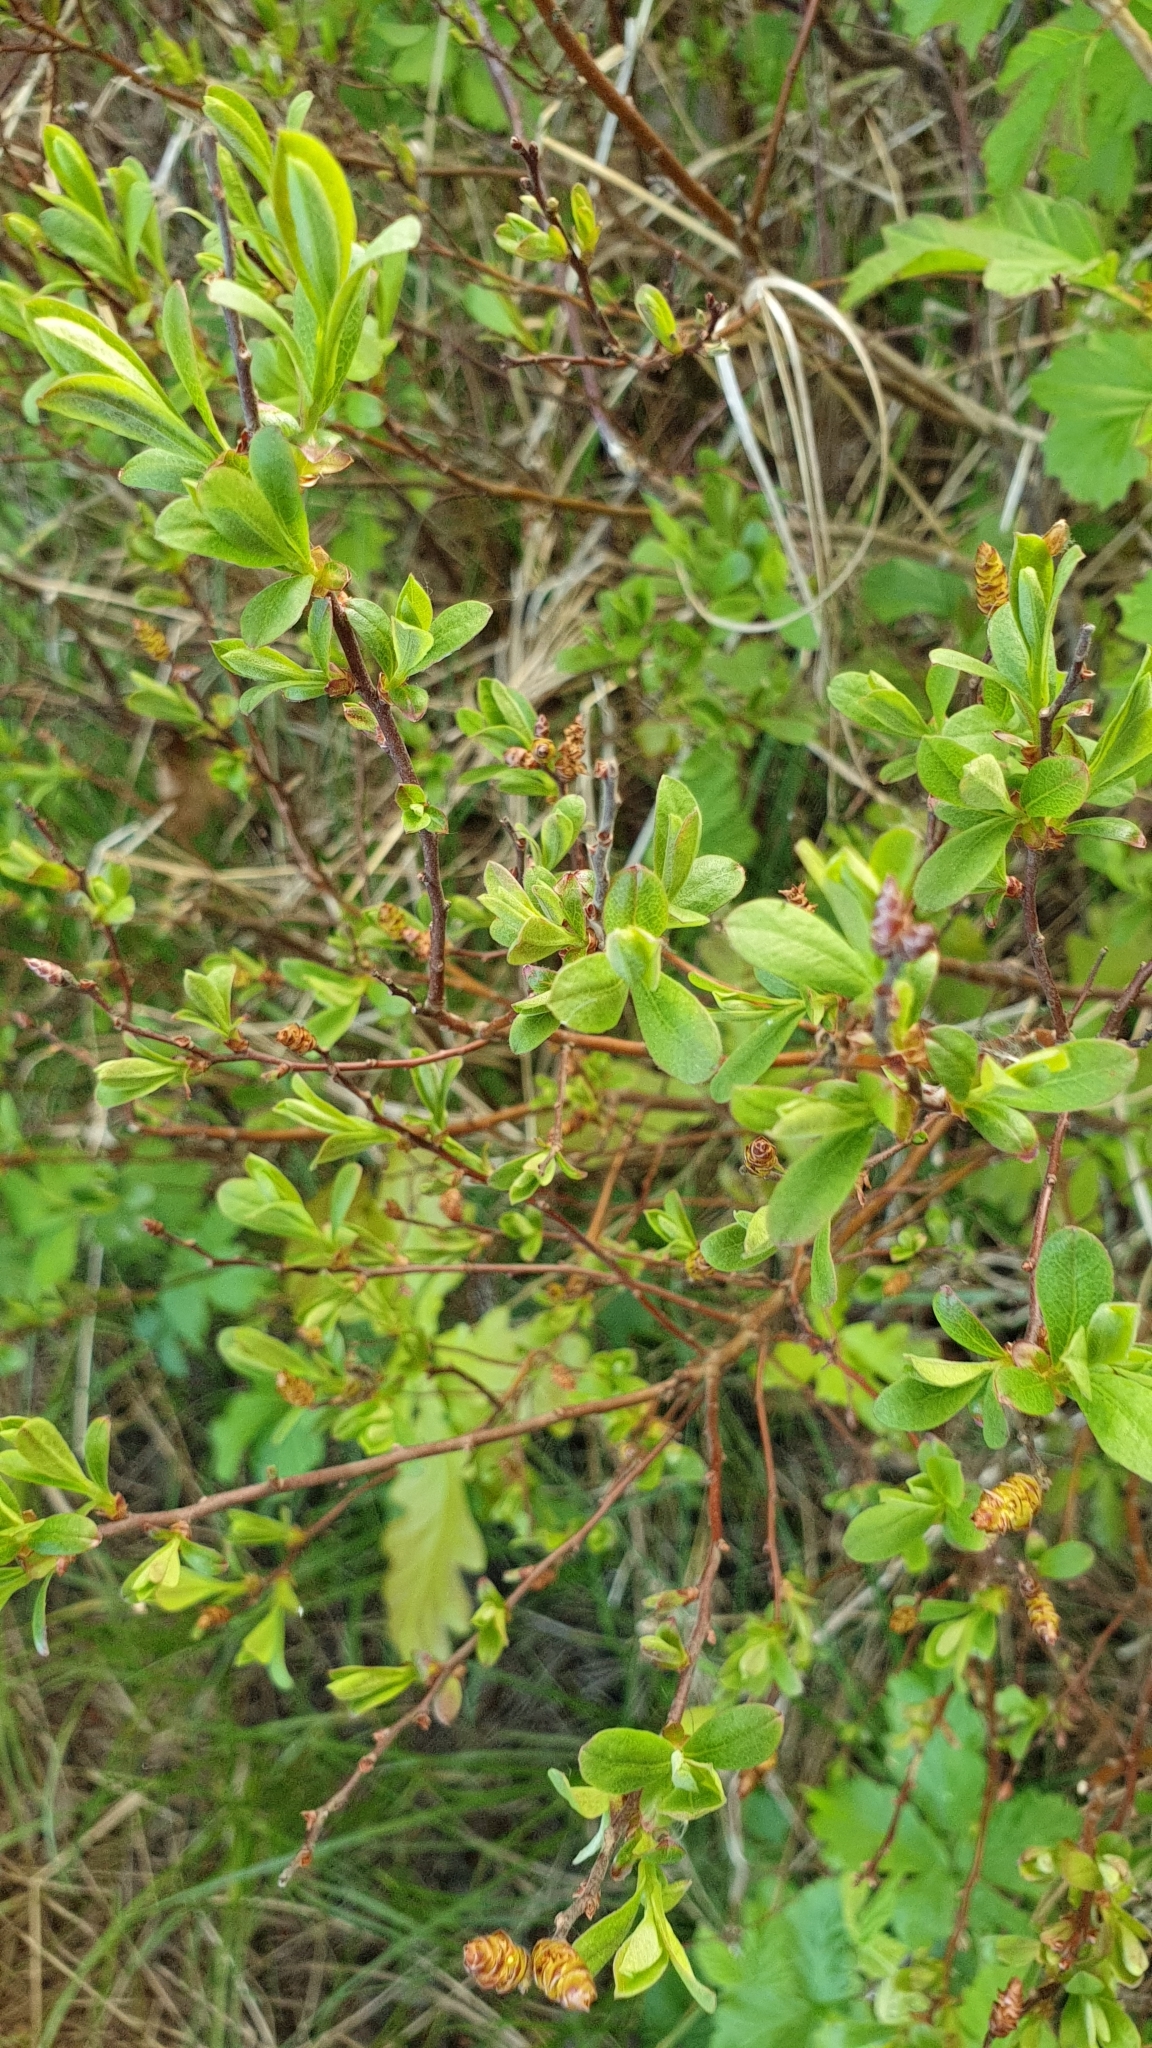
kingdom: Plantae
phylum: Tracheophyta
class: Magnoliopsida
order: Fagales
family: Myricaceae
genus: Myrica
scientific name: Myrica gale
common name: Sweet gale
